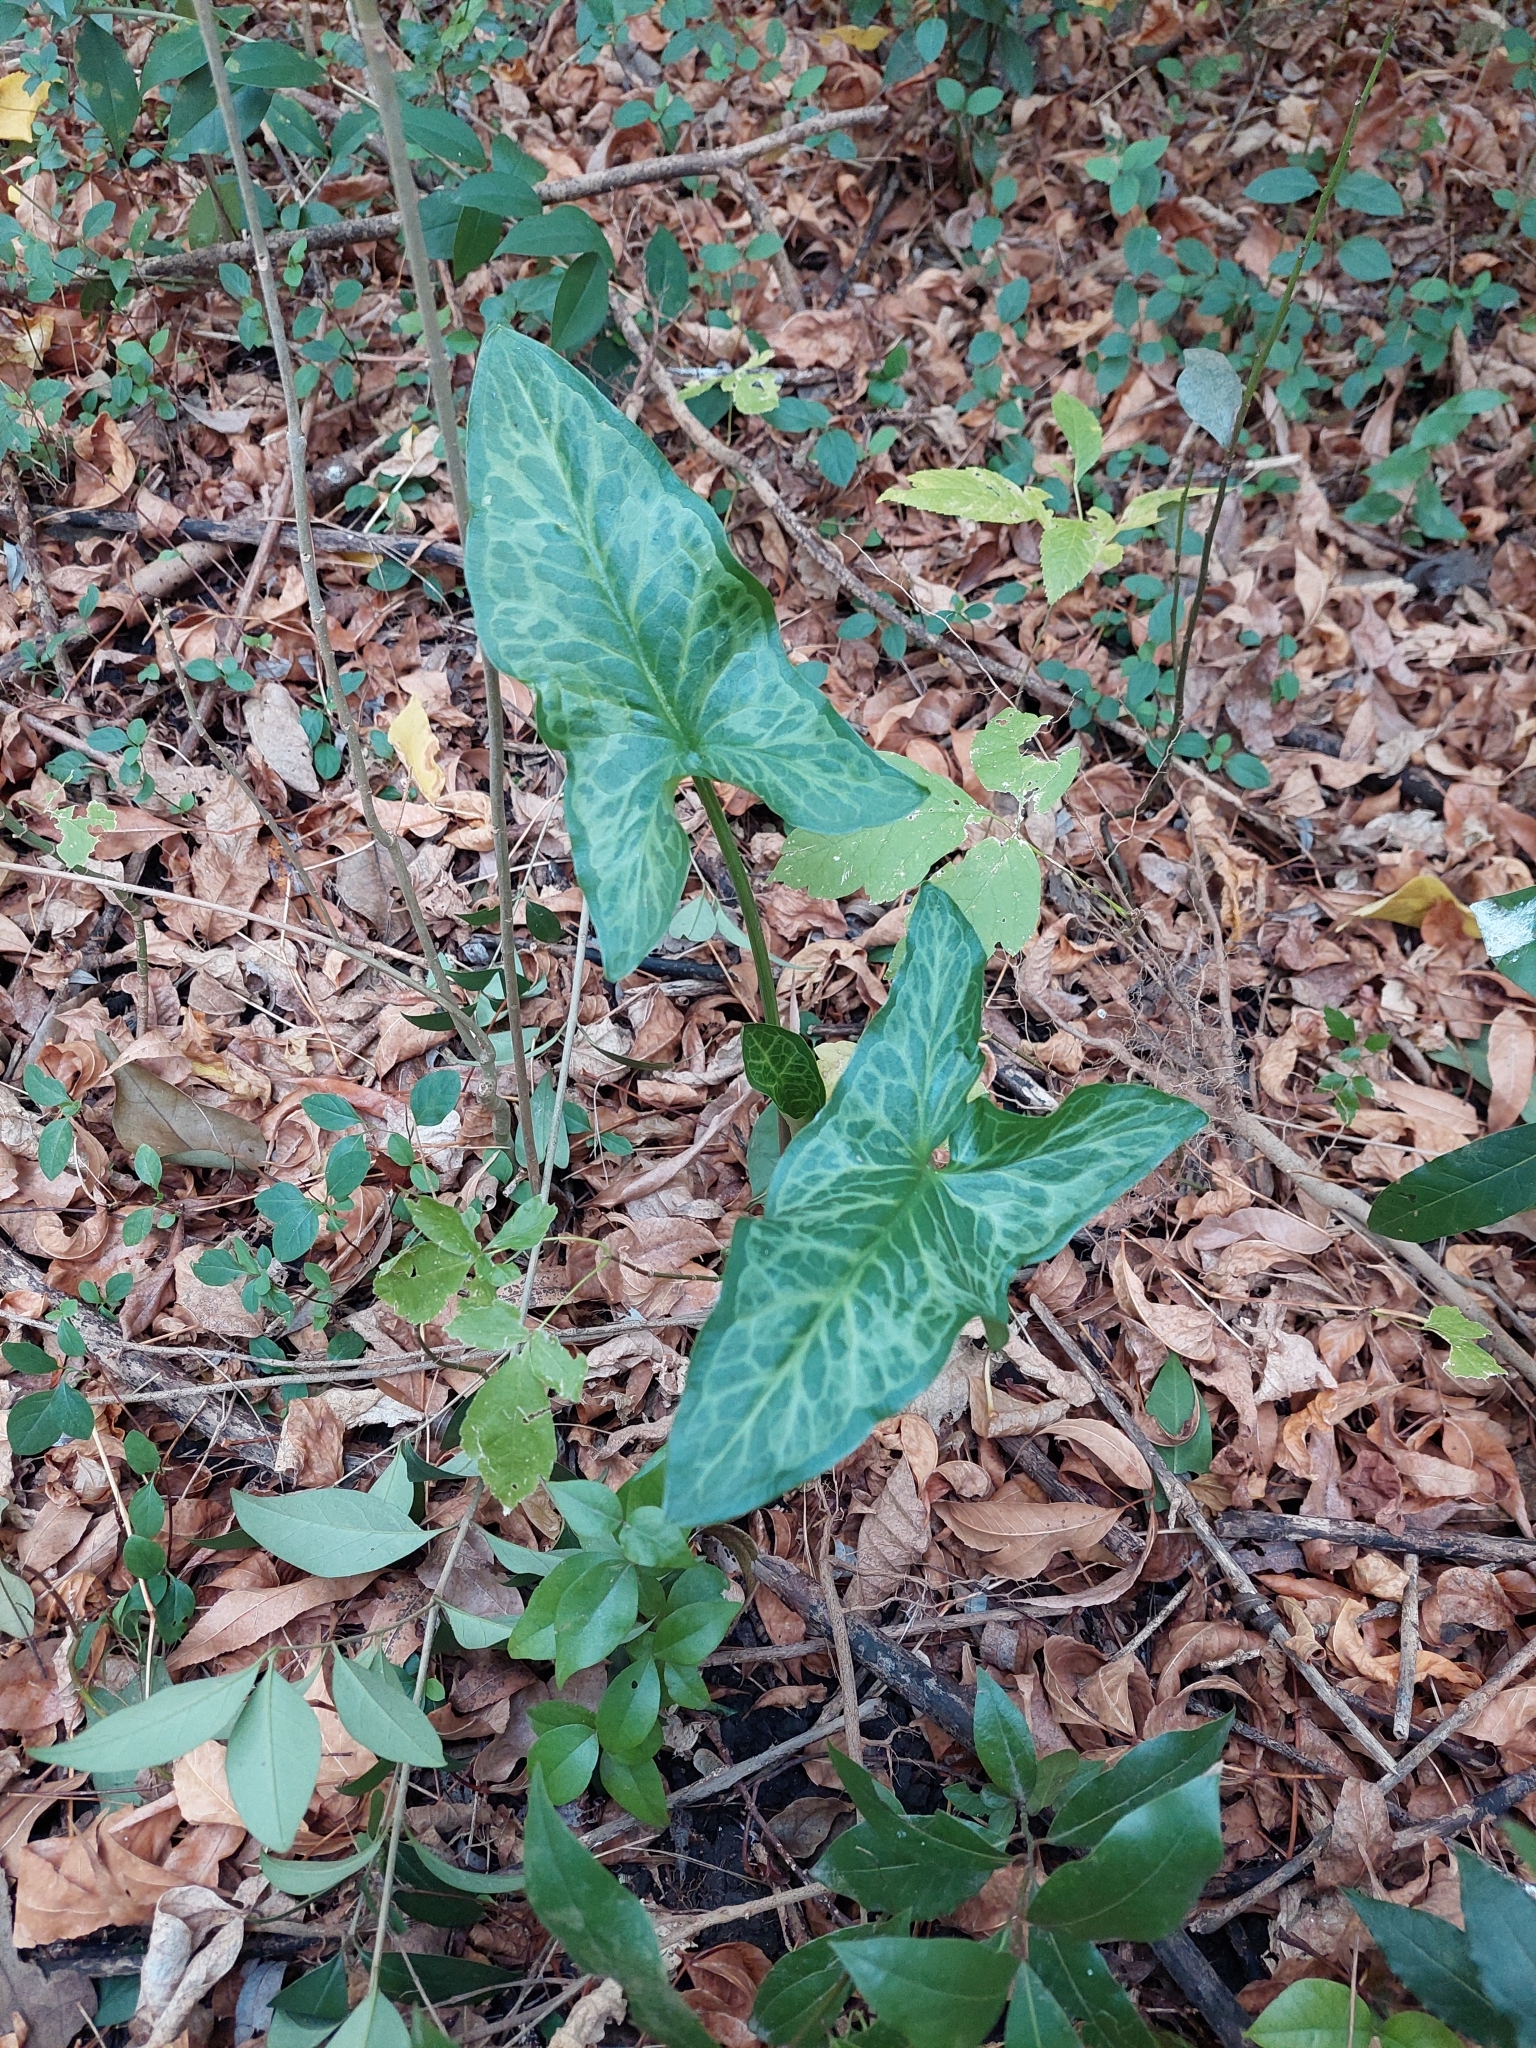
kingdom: Plantae
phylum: Tracheophyta
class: Liliopsida
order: Alismatales
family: Araceae
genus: Arum
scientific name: Arum italicum
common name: Italian lords-and-ladies
